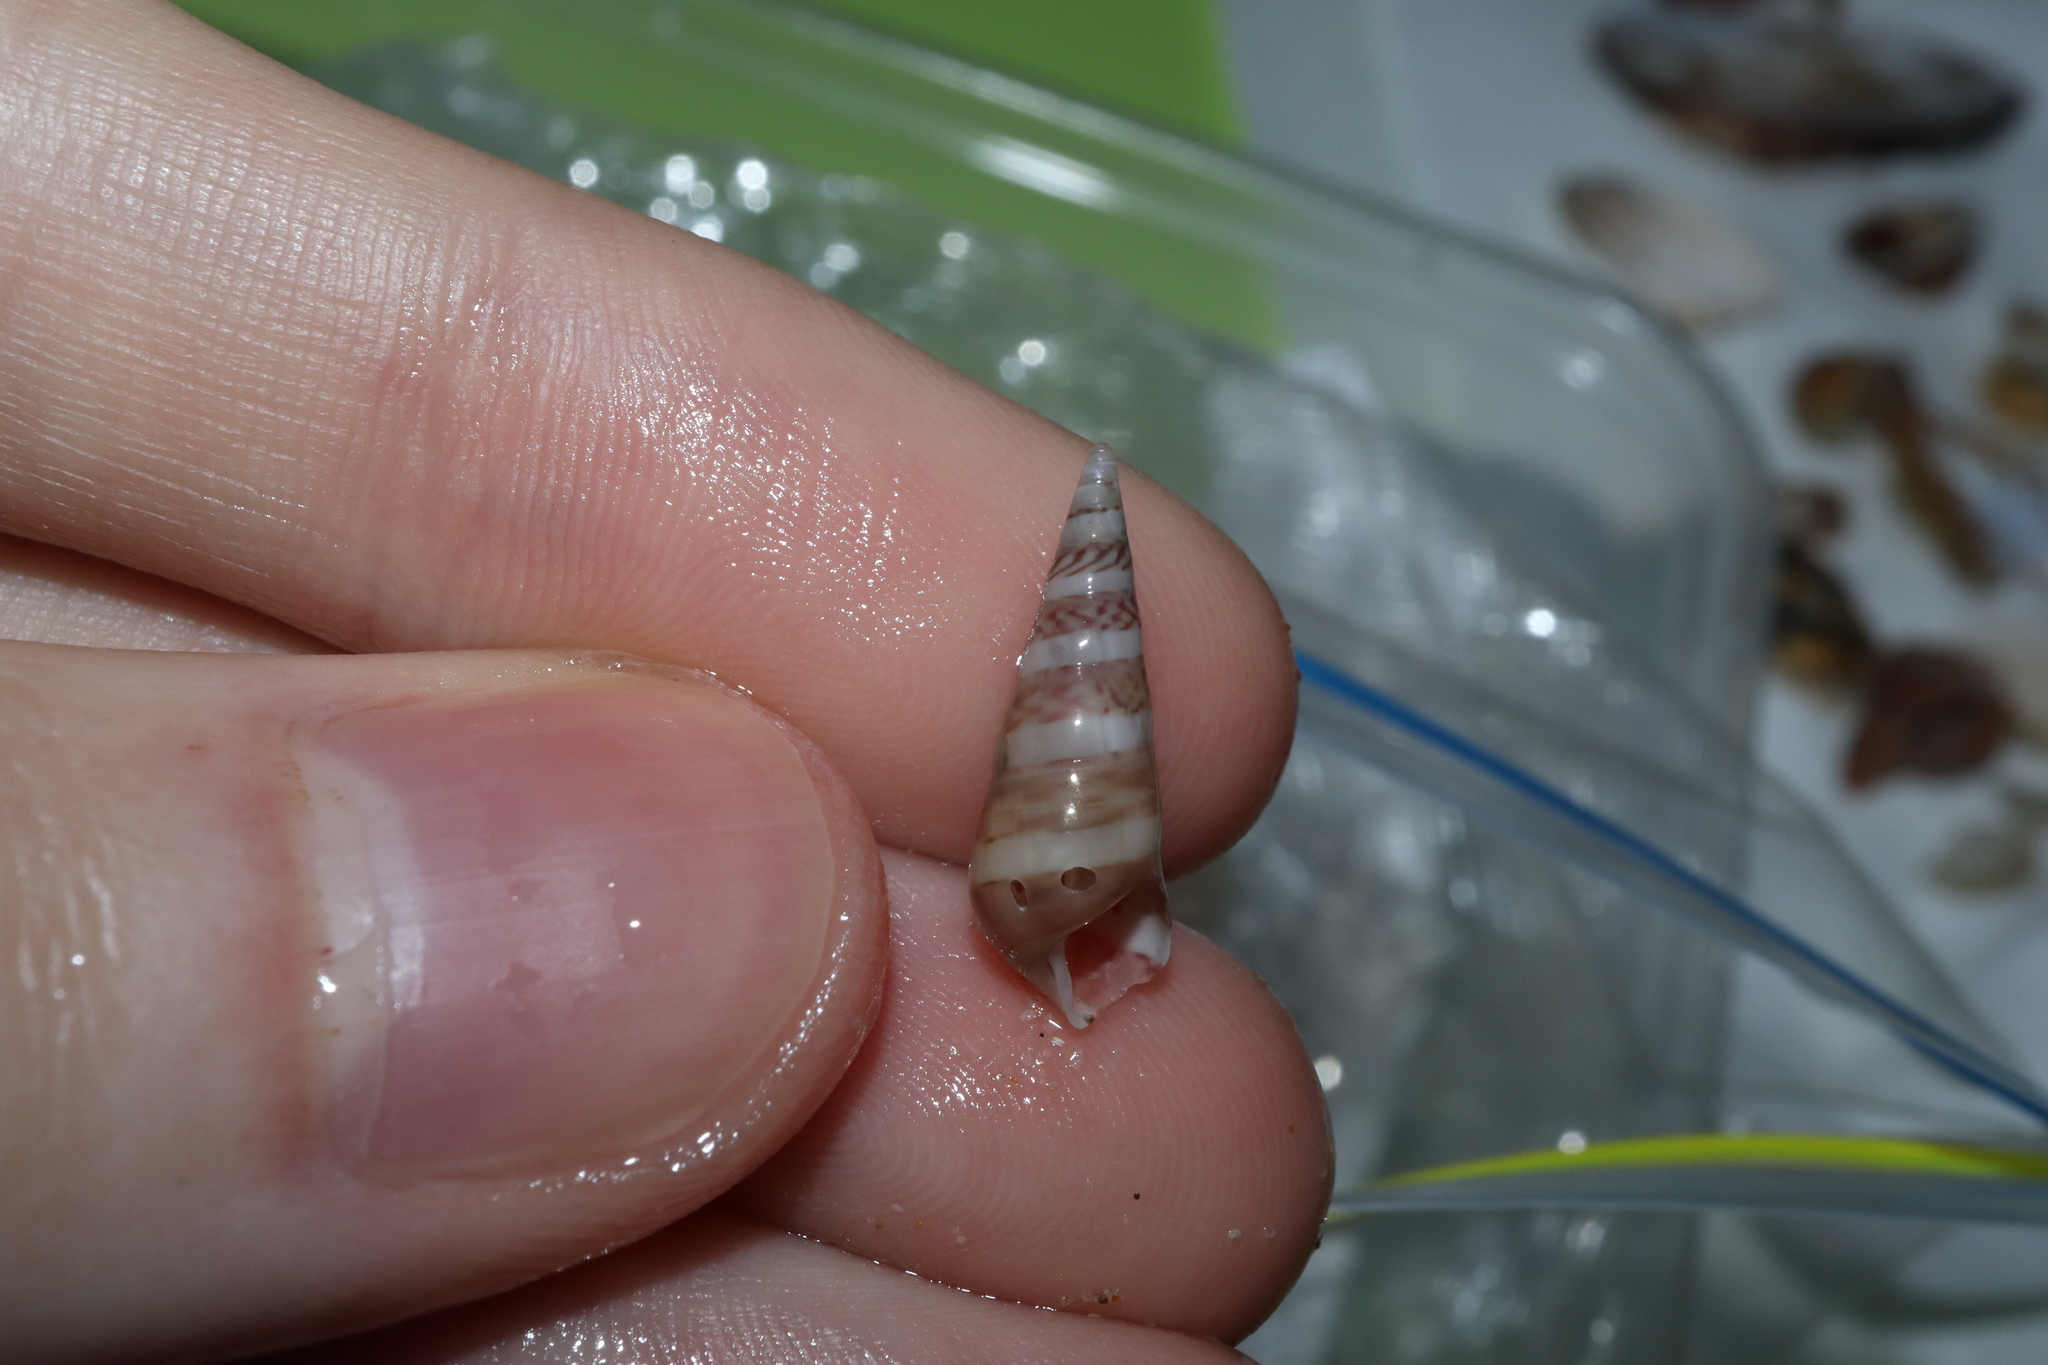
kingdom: Animalia
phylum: Mollusca
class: Gastropoda
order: Trochida
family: Trochidae
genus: Bankivia
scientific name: Bankivia fasciata
